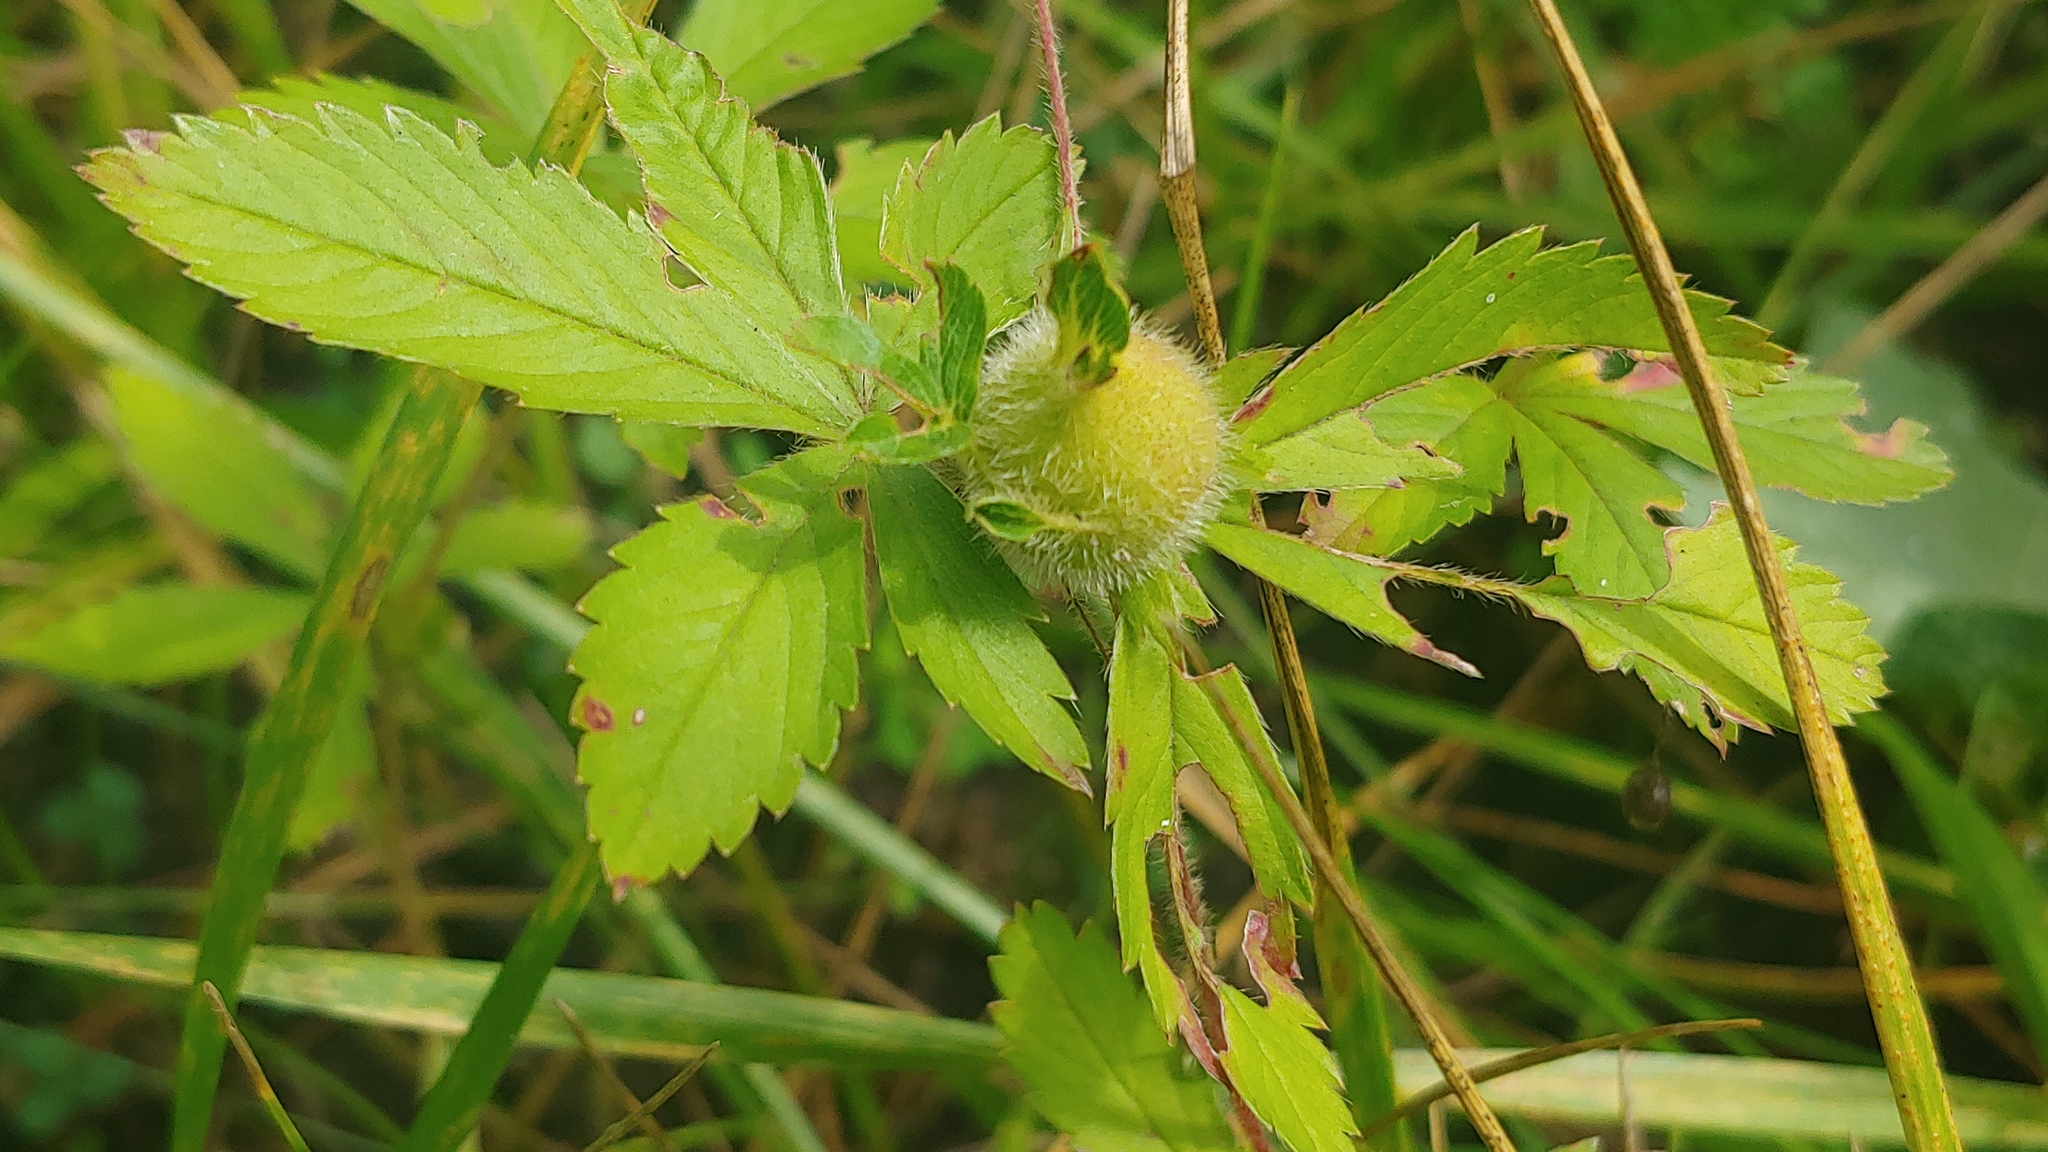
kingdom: Animalia
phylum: Arthropoda
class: Insecta
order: Hymenoptera
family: Cynipidae
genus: Diastrophus
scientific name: Diastrophus potentillae
